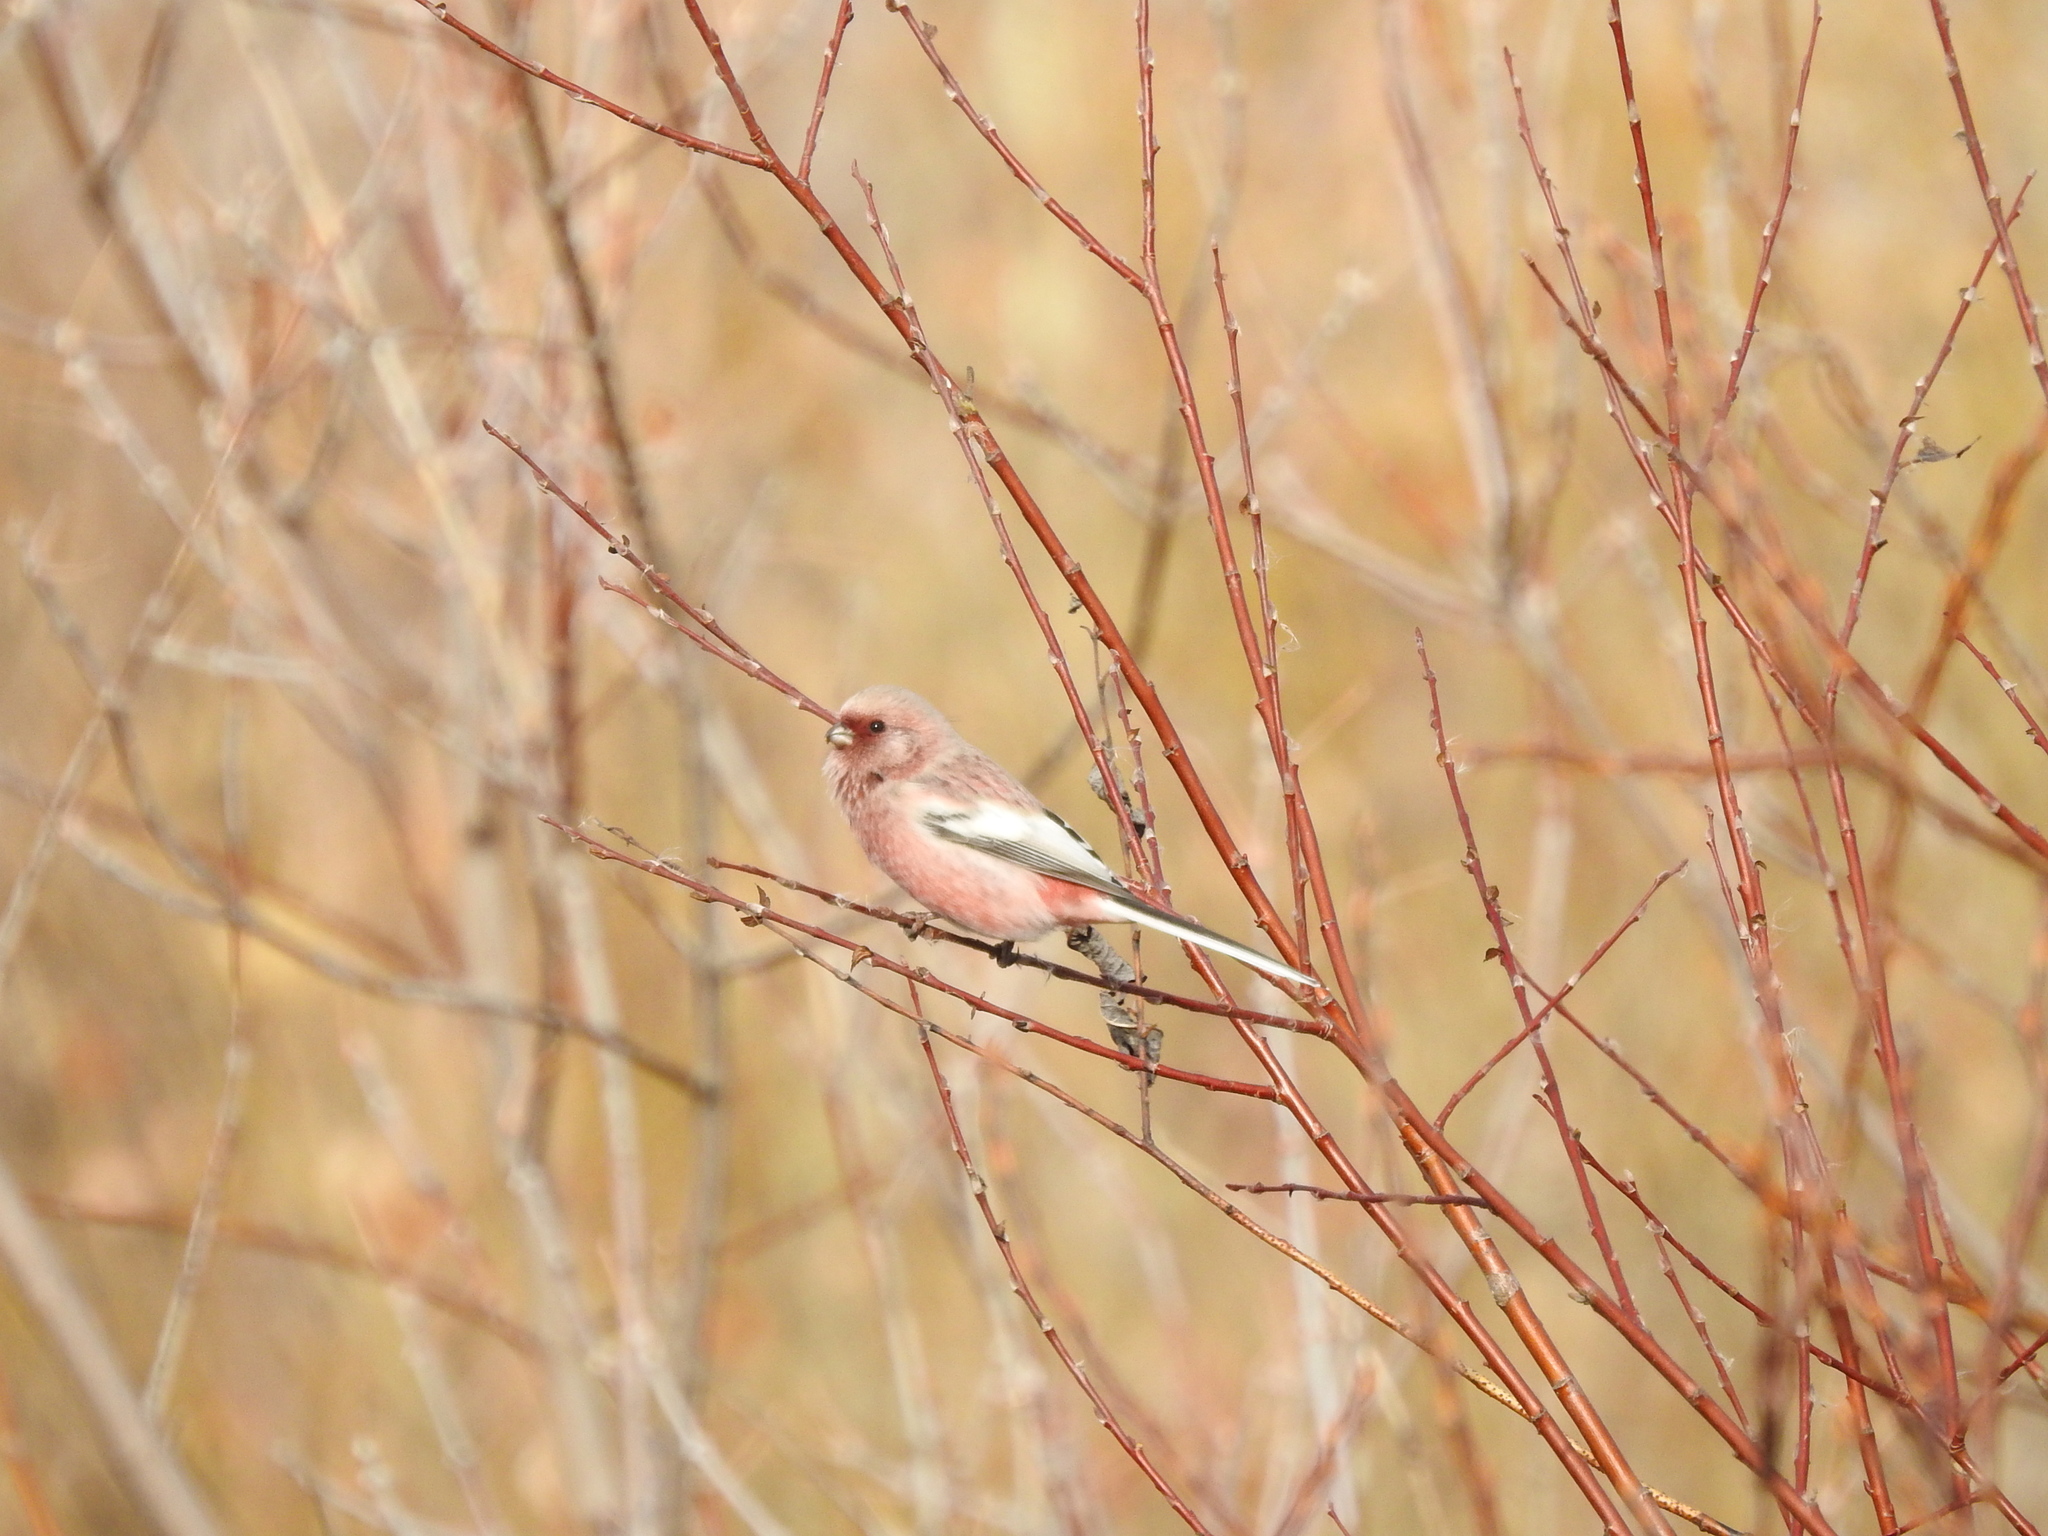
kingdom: Animalia
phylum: Chordata
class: Aves
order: Passeriformes
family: Fringillidae
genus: Carpodacus
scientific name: Carpodacus sibiricus
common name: Long-tailed rosefinch
